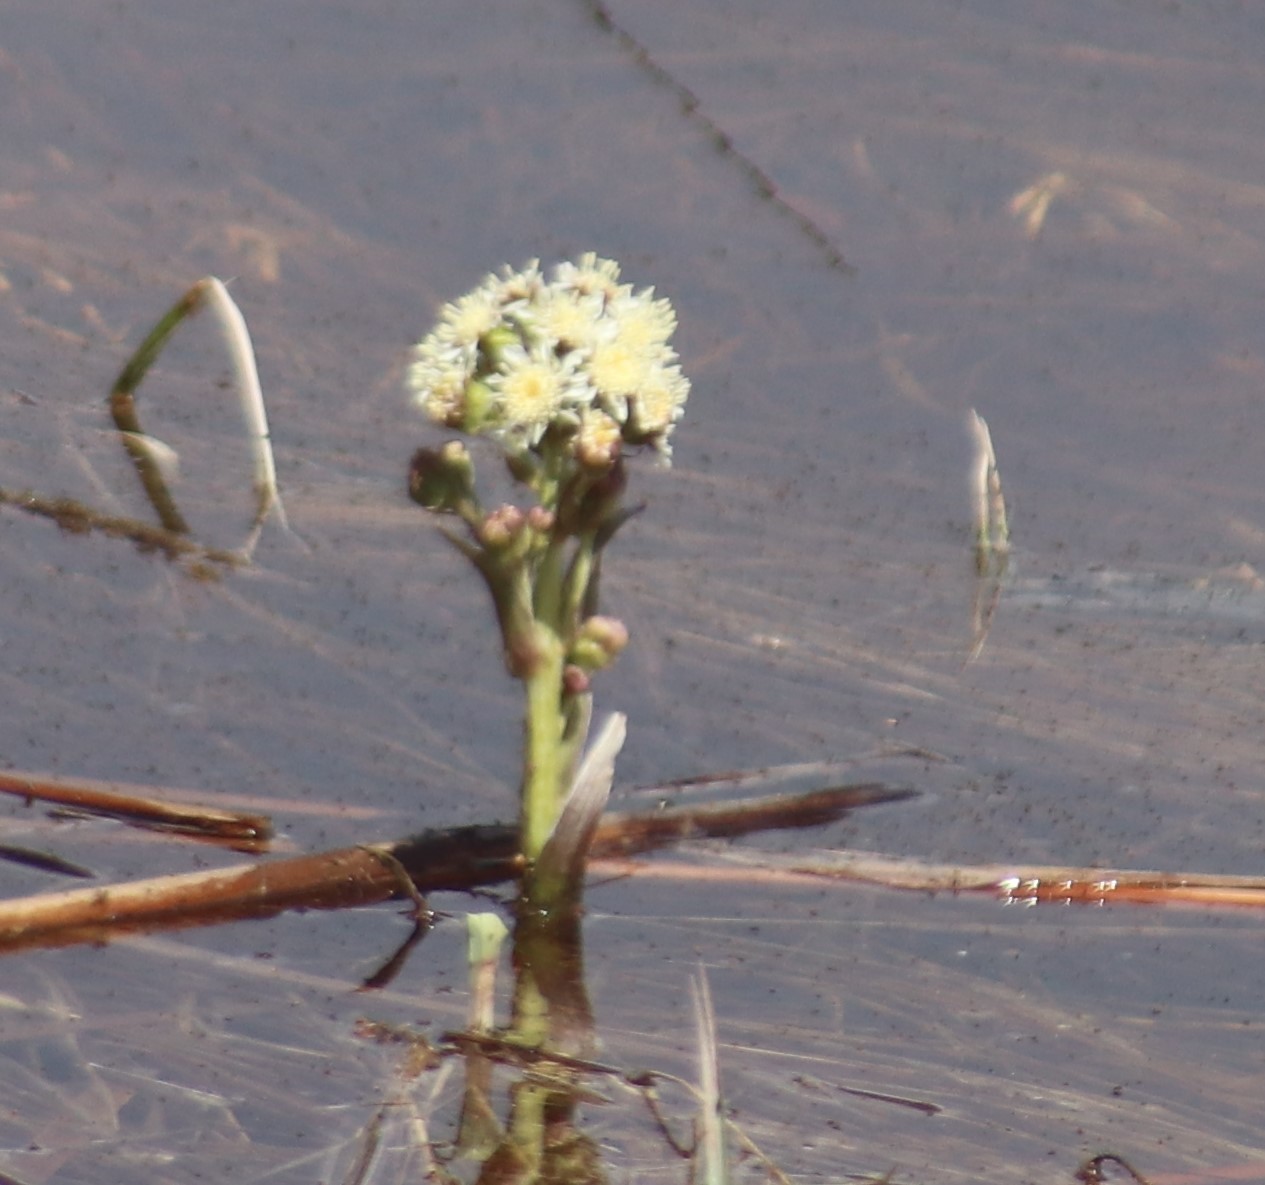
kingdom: Plantae
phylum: Tracheophyta
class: Magnoliopsida
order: Asterales
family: Asteraceae
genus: Petasites
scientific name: Petasites frigidus
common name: Arctic butterbur
